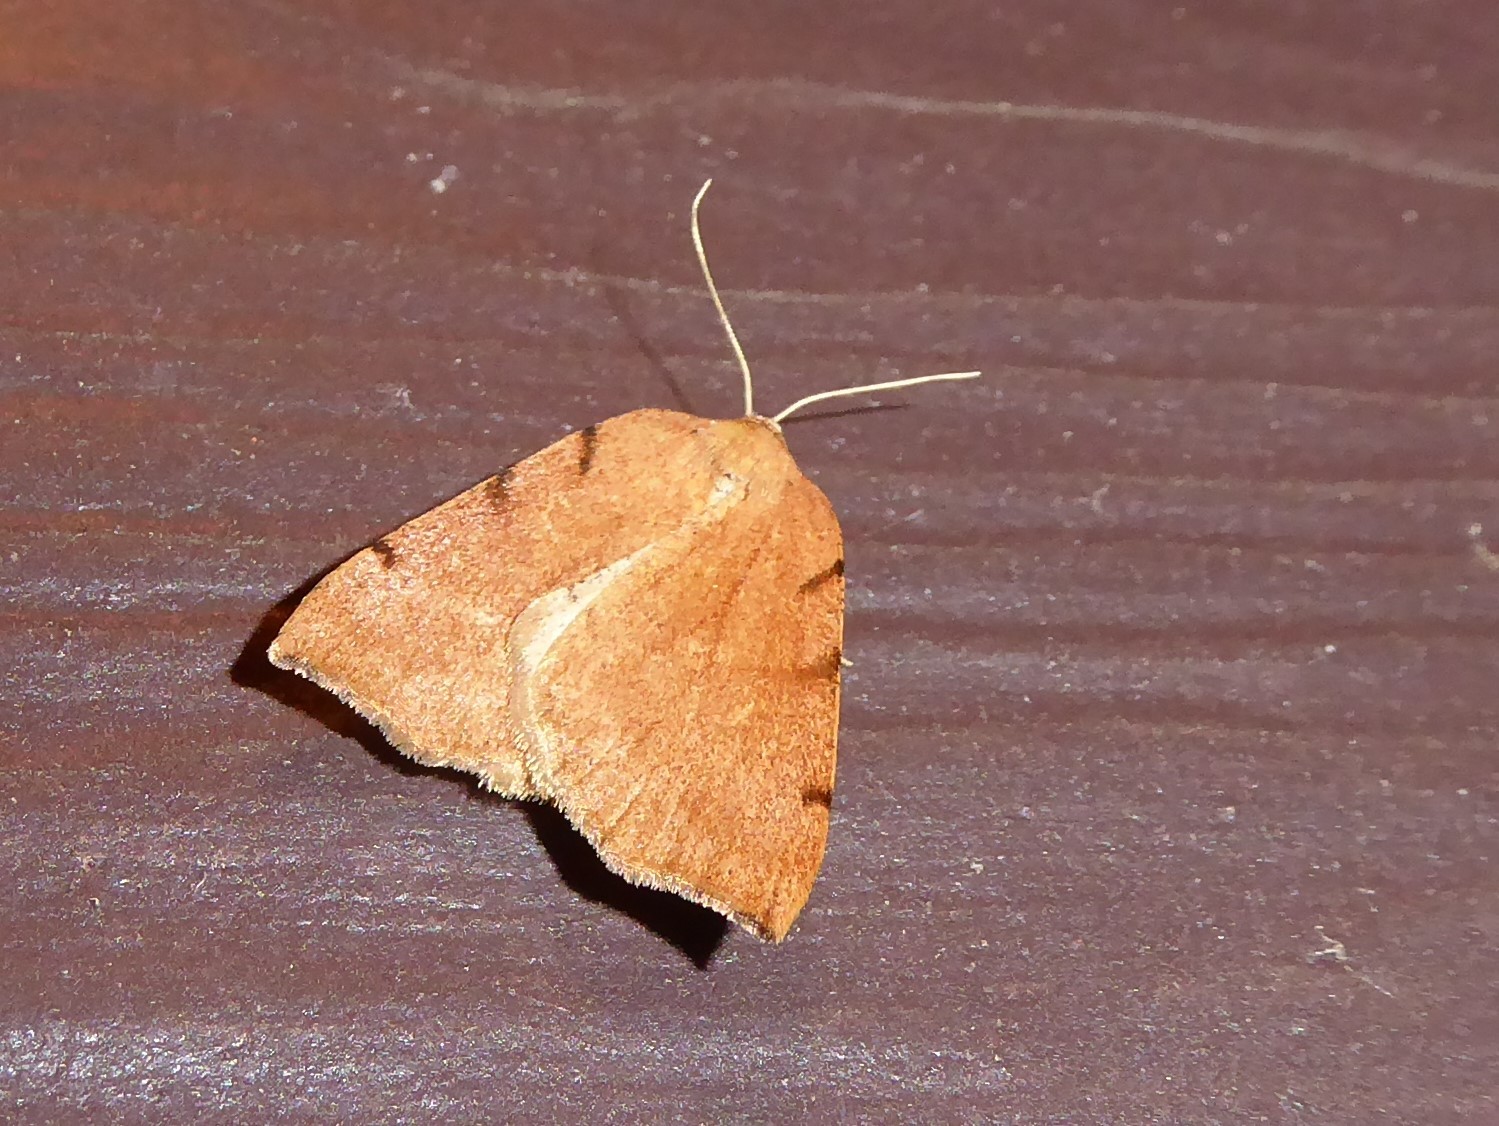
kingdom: Animalia
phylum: Arthropoda
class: Insecta
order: Lepidoptera
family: Geometridae
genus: Sestra
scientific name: Sestra humeraria
